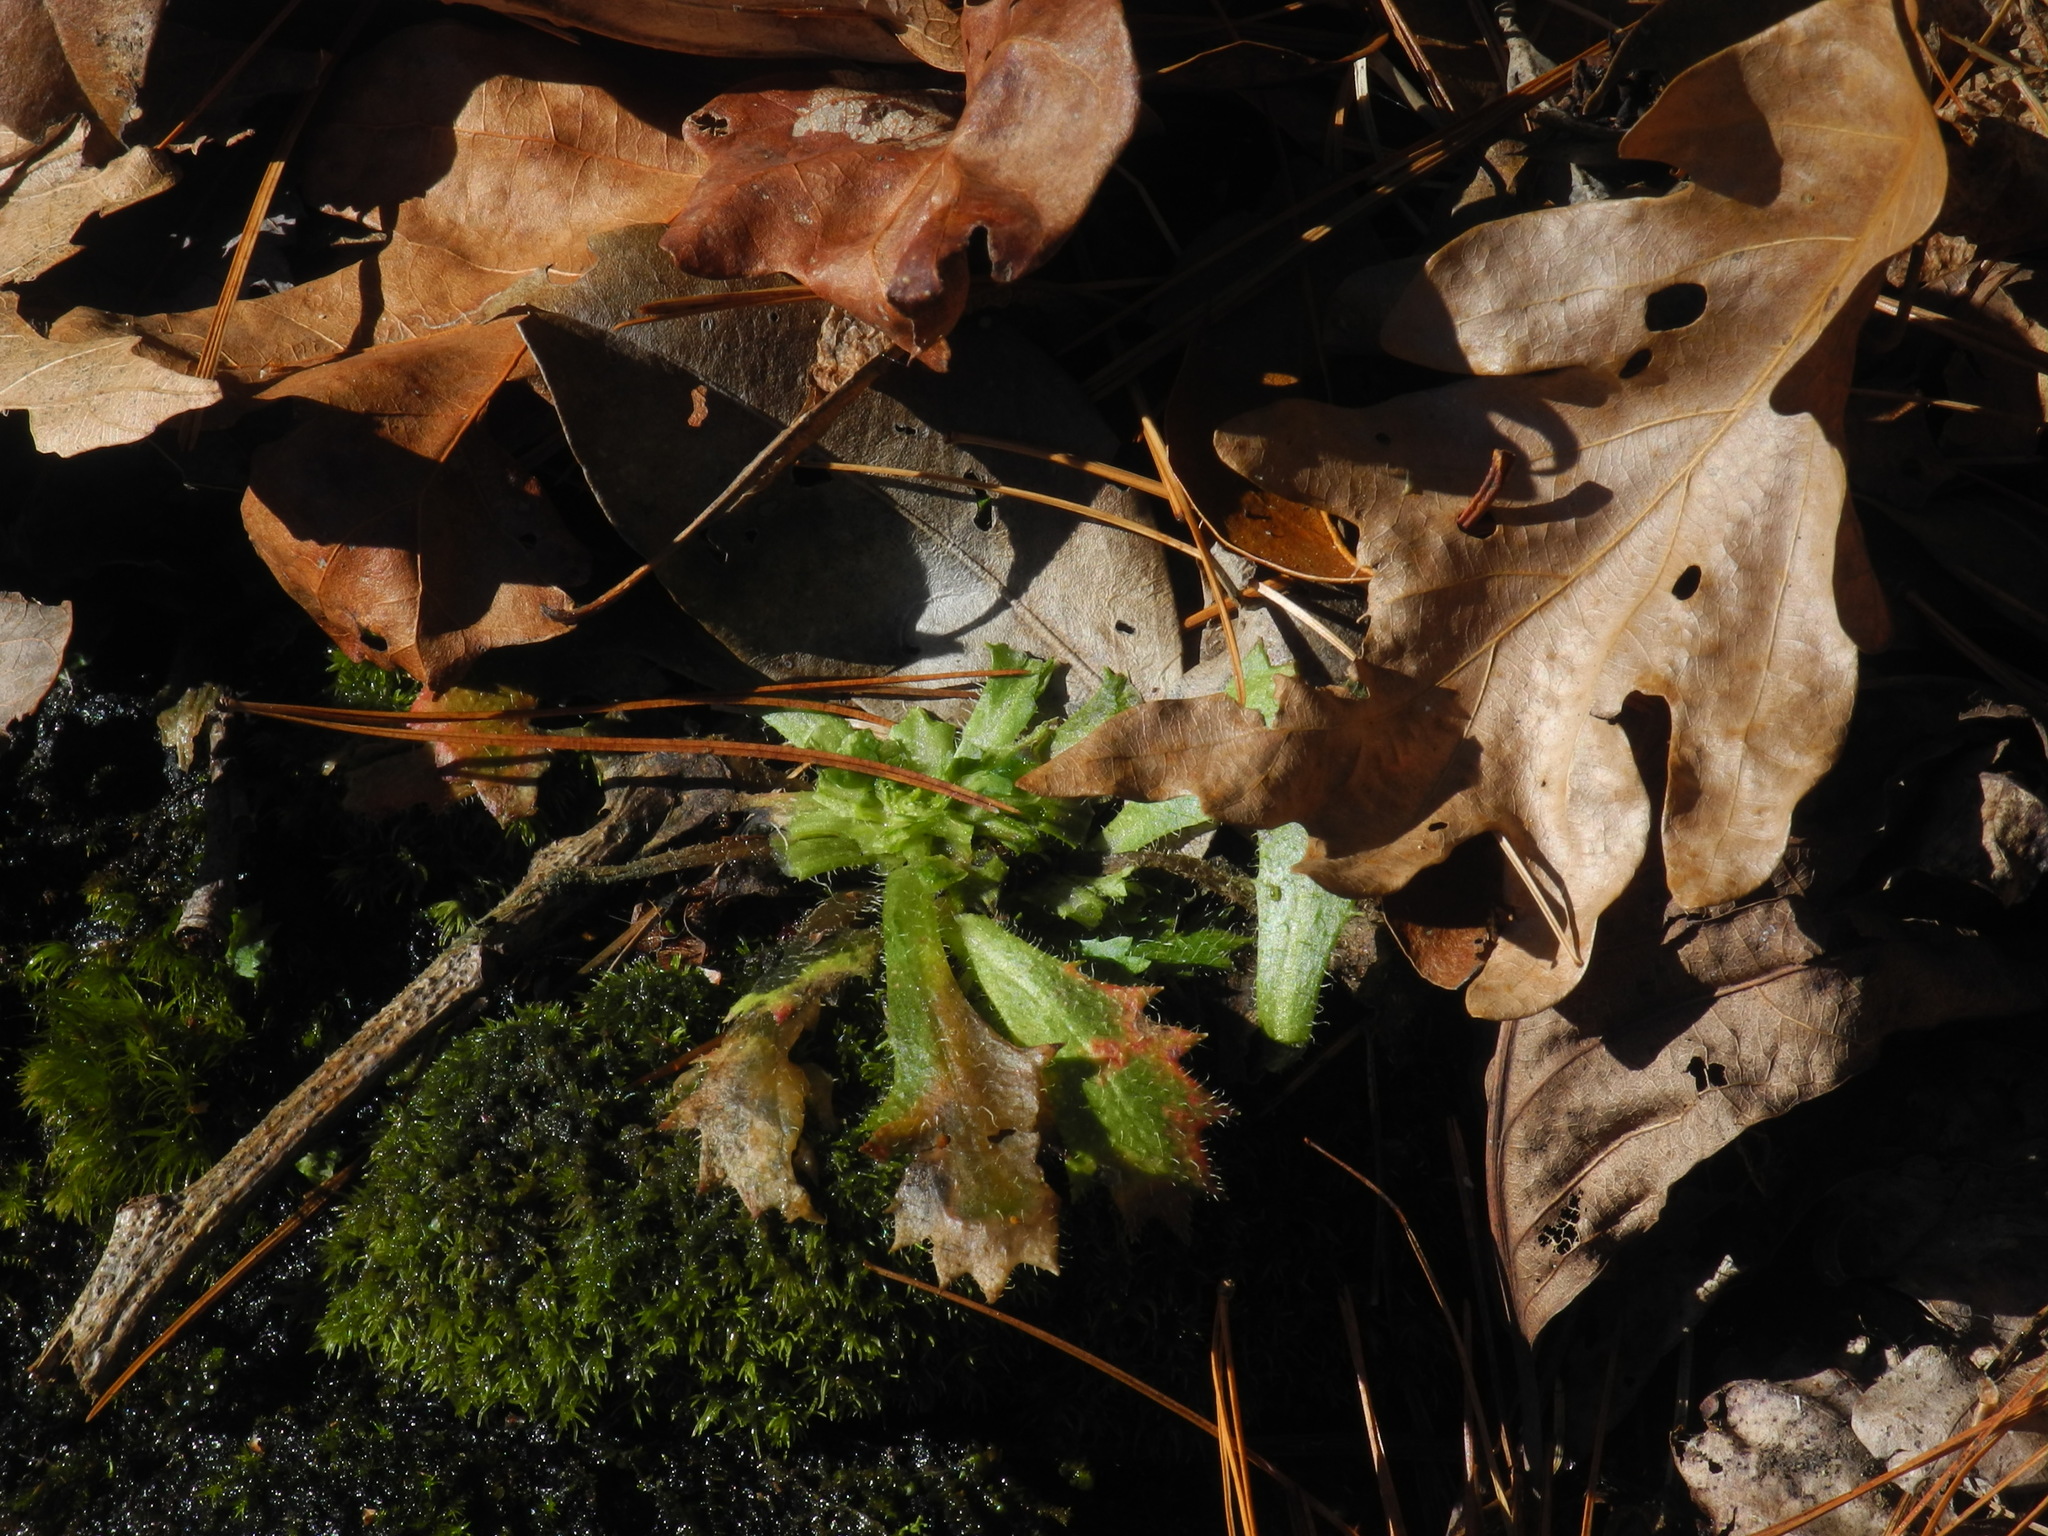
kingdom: Plantae
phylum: Tracheophyta
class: Magnoliopsida
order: Saxifragales
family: Saxifragaceae
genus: Micranthes
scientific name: Micranthes petiolaris
